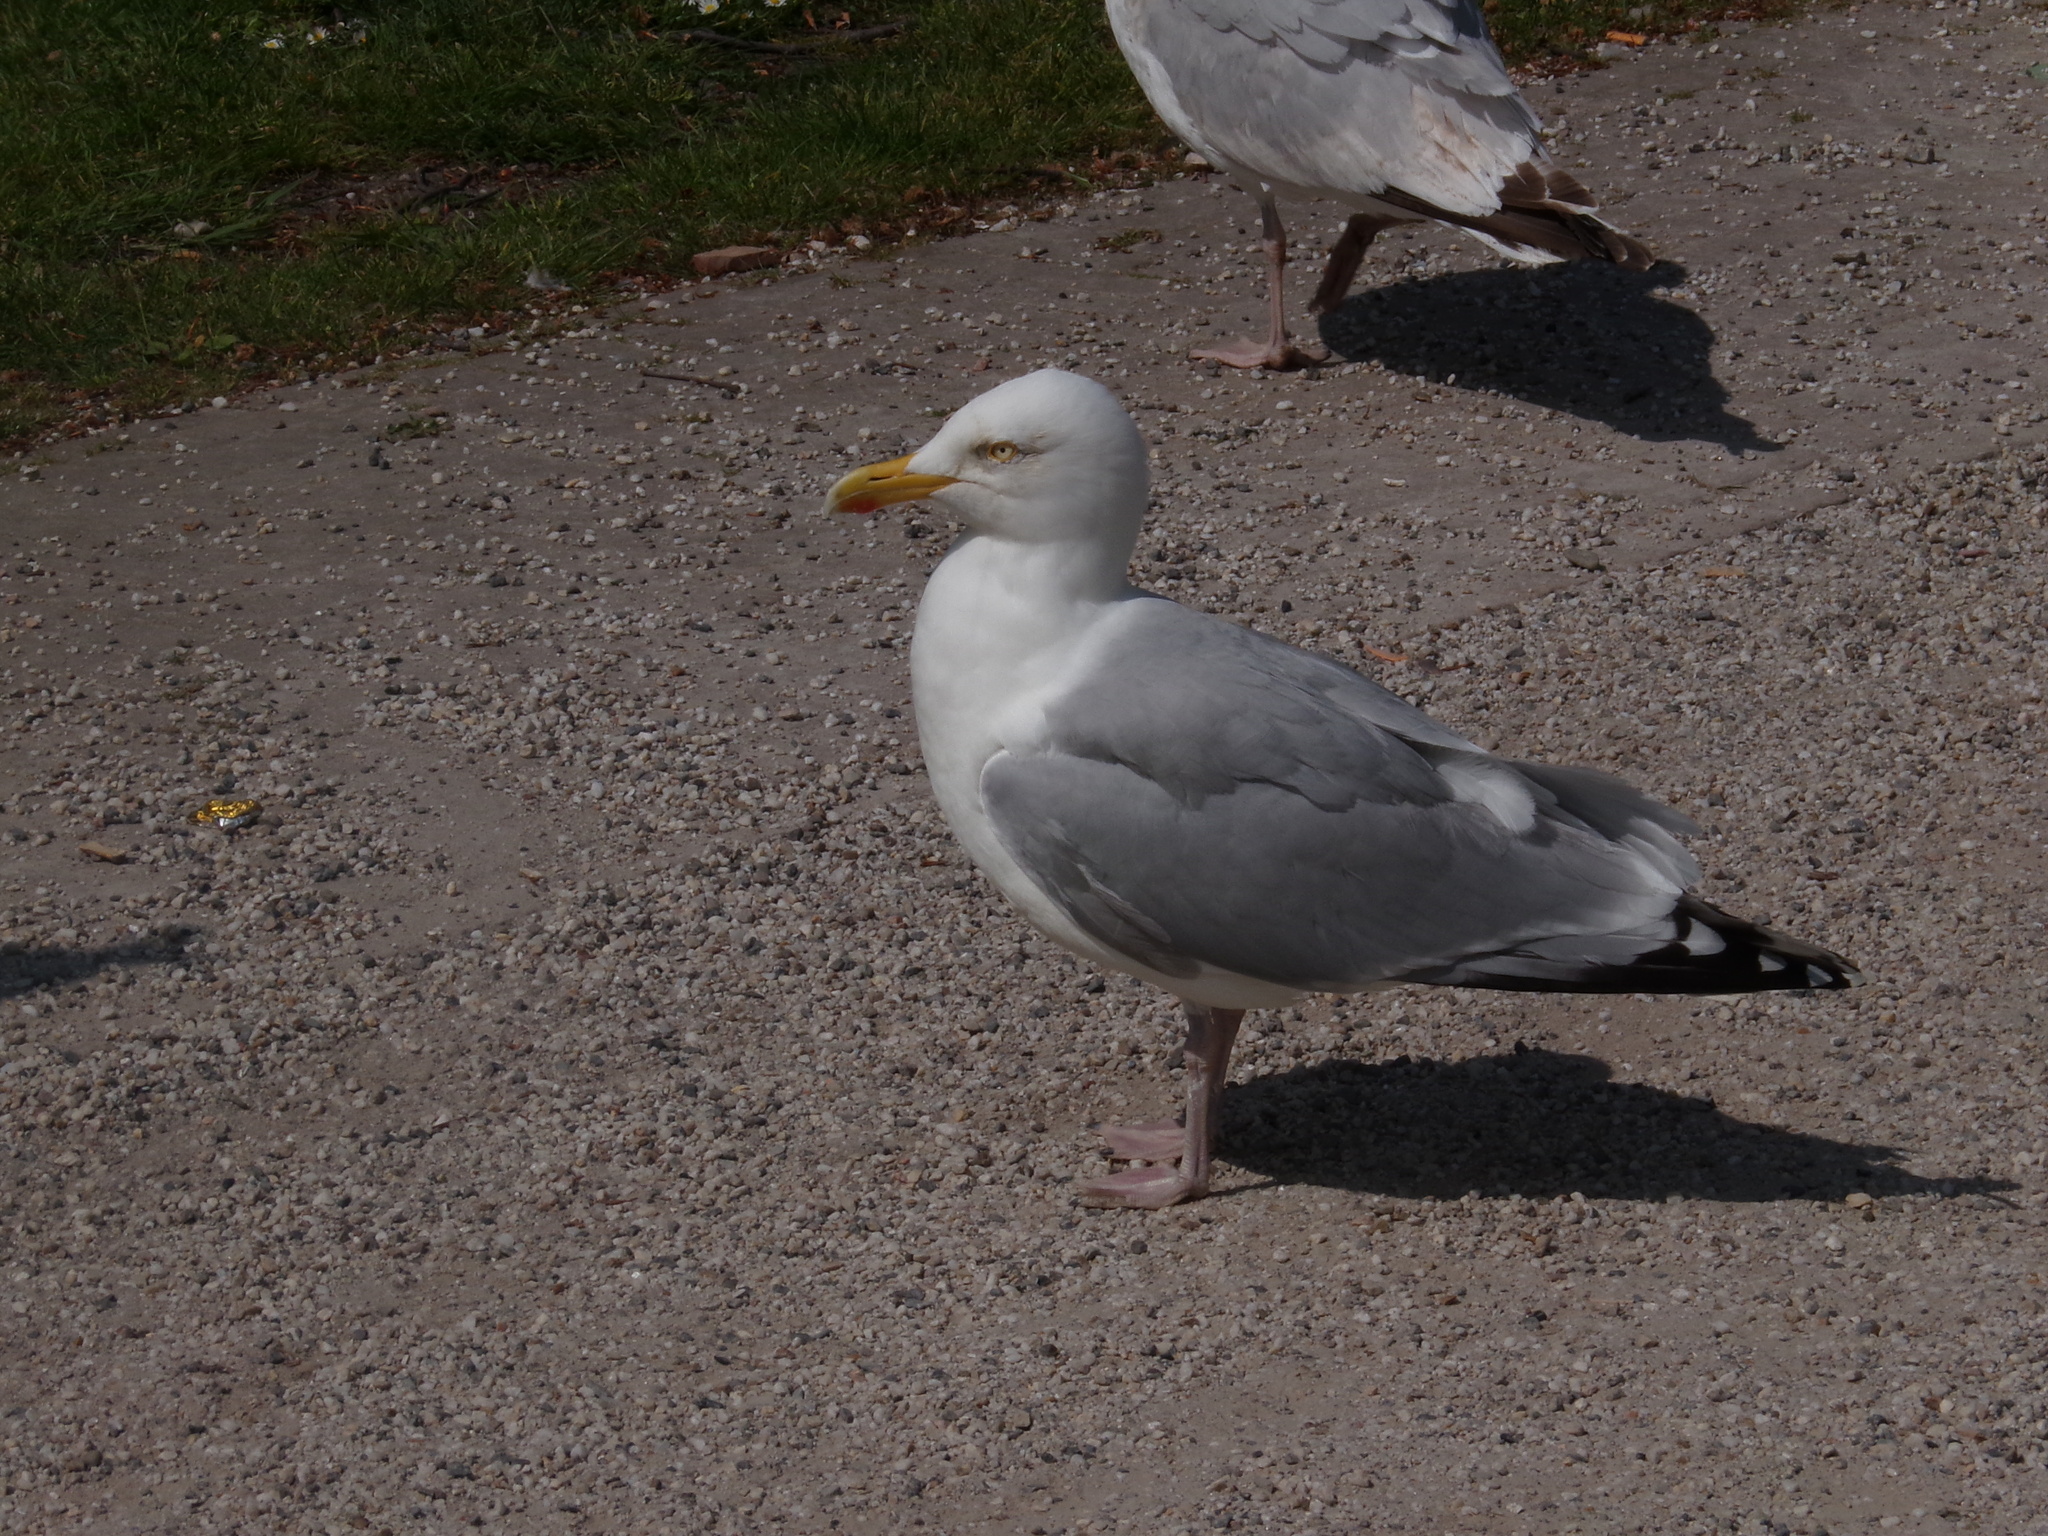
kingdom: Animalia
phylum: Chordata
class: Aves
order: Charadriiformes
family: Laridae
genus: Larus
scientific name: Larus argentatus
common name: Herring gull
